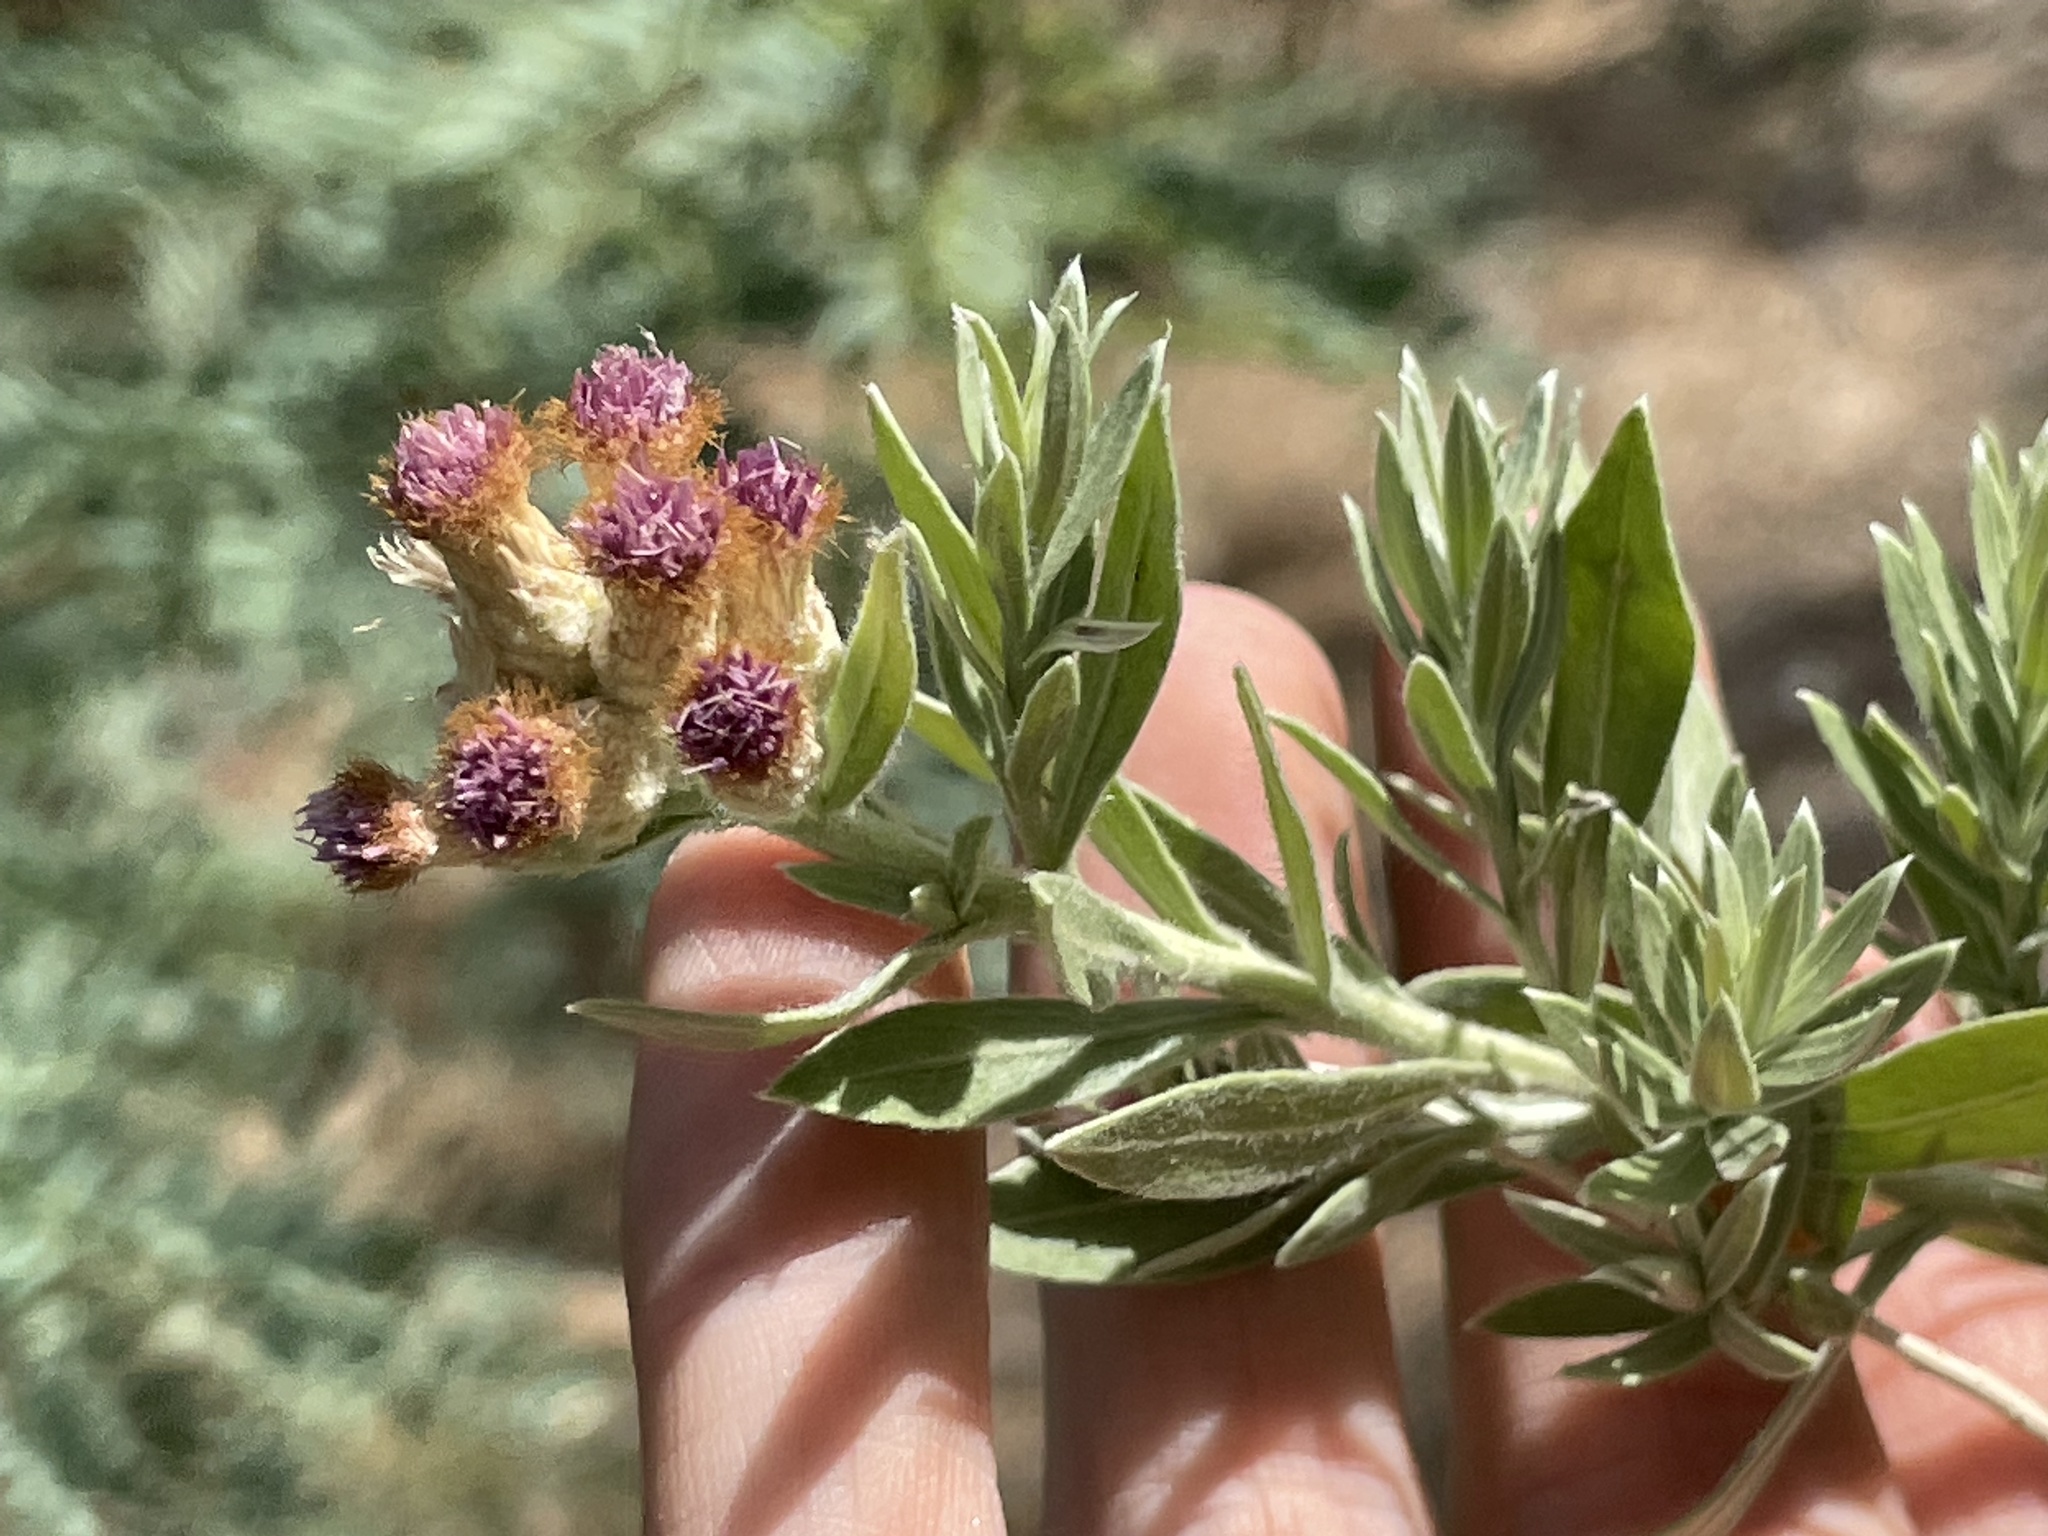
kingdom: Plantae
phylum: Tracheophyta
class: Magnoliopsida
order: Asterales
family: Asteraceae
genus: Pluchea
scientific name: Pluchea sericea
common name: Arrow-weed
